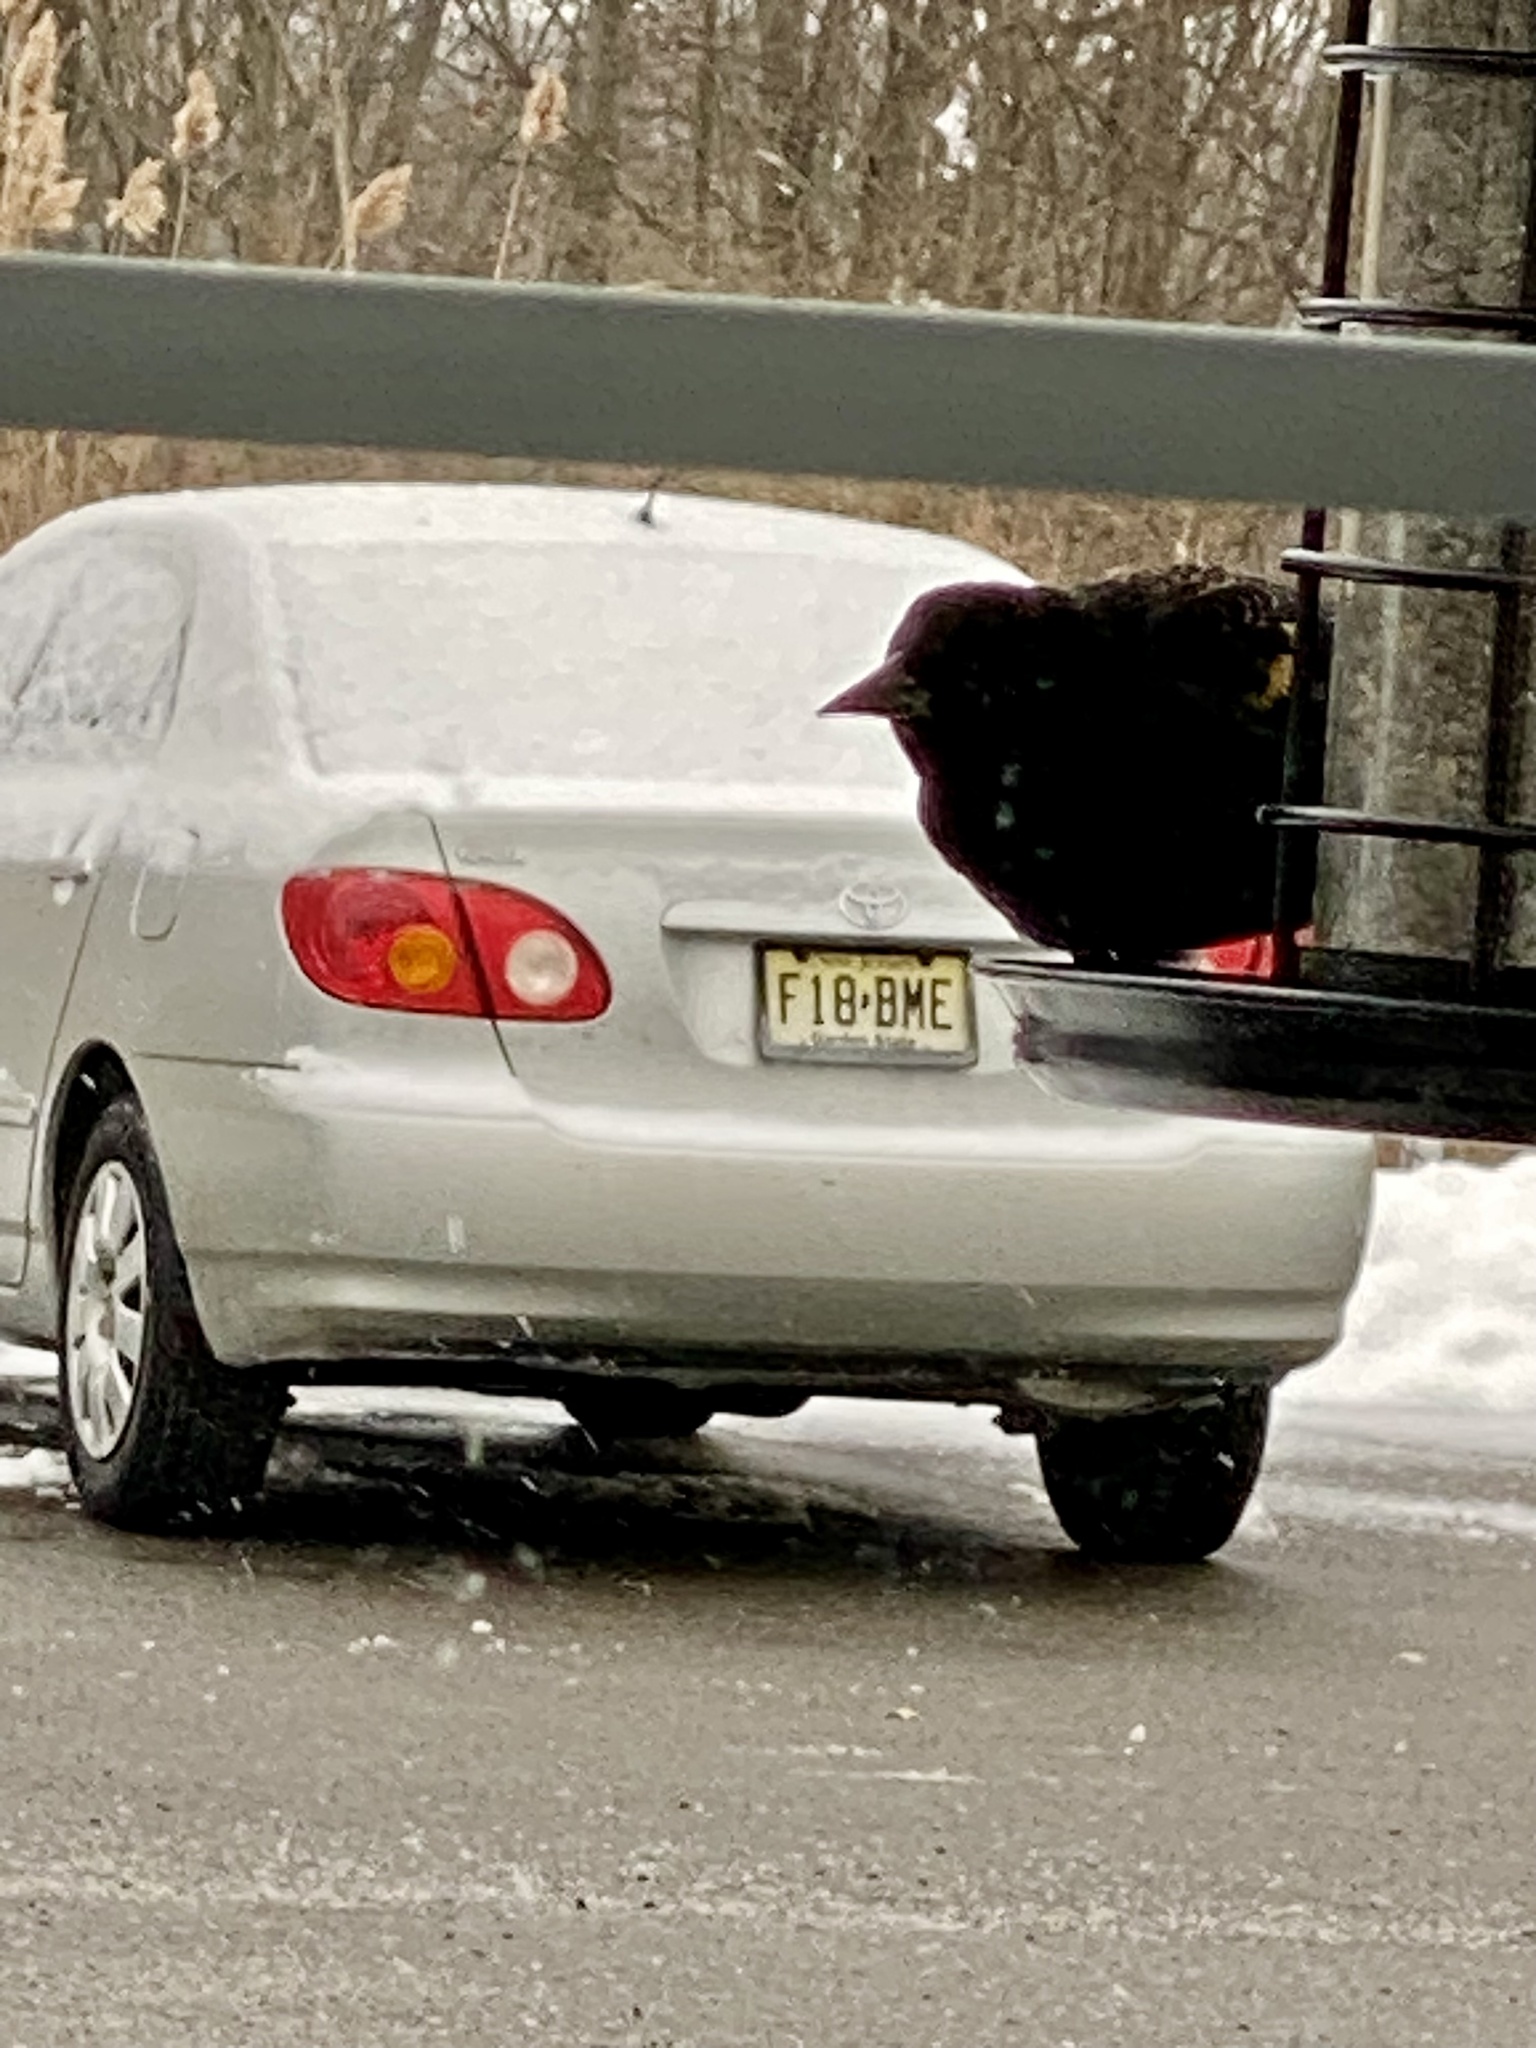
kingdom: Animalia
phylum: Chordata
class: Aves
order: Passeriformes
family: Icteridae
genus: Agelaius
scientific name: Agelaius phoeniceus
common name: Red-winged blackbird
